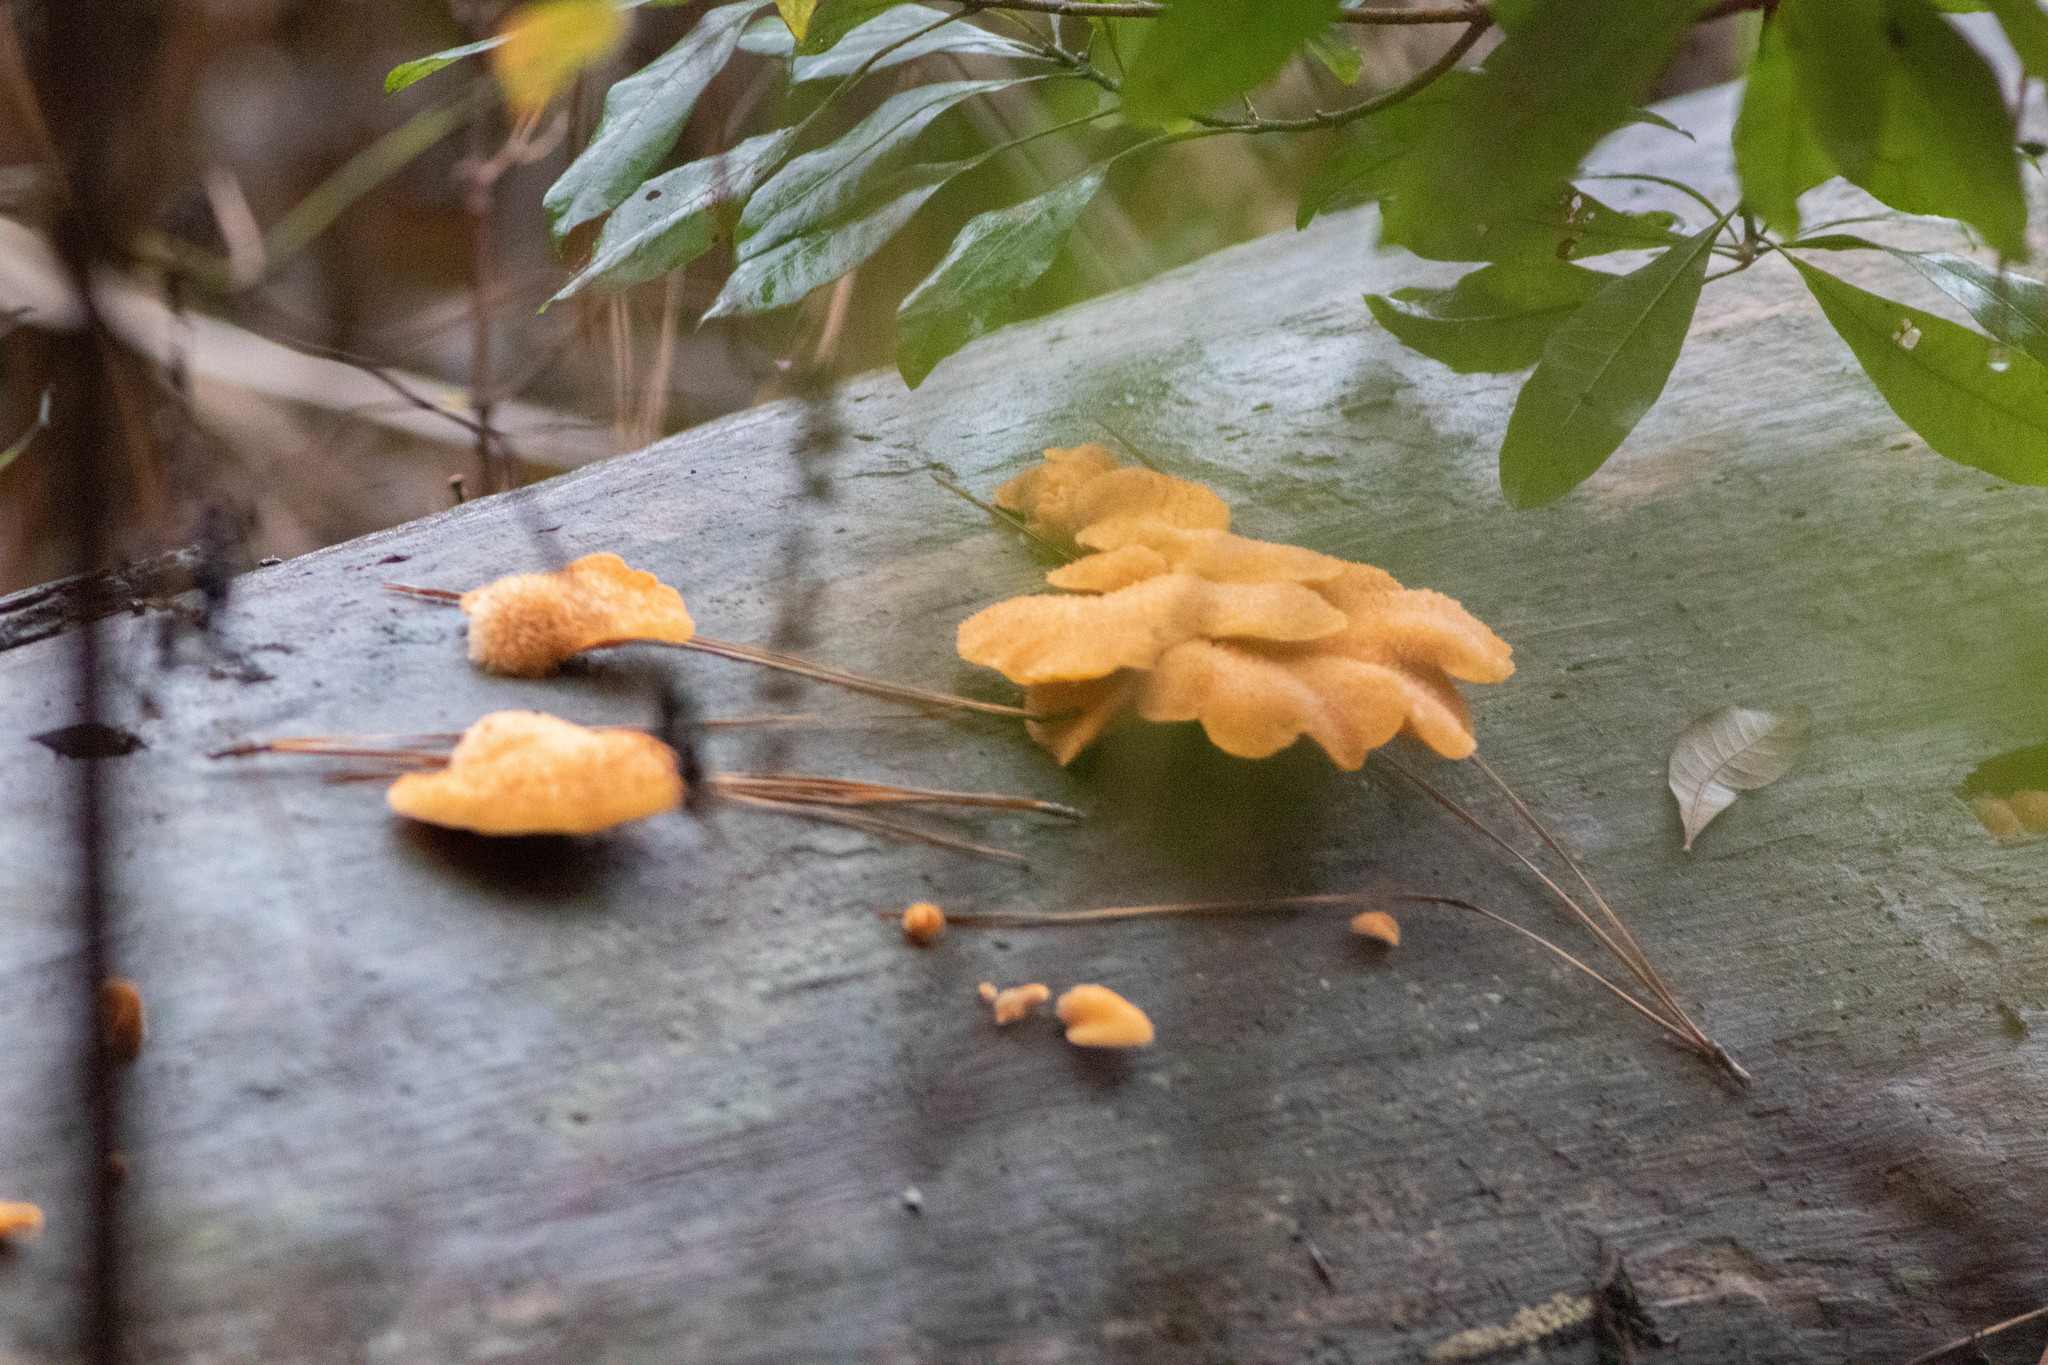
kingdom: Fungi
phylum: Basidiomycota
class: Agaricomycetes
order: Agaricales
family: Phyllotopsidaceae
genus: Phyllotopsis
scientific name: Phyllotopsis nidulans
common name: Orange mock oyster
